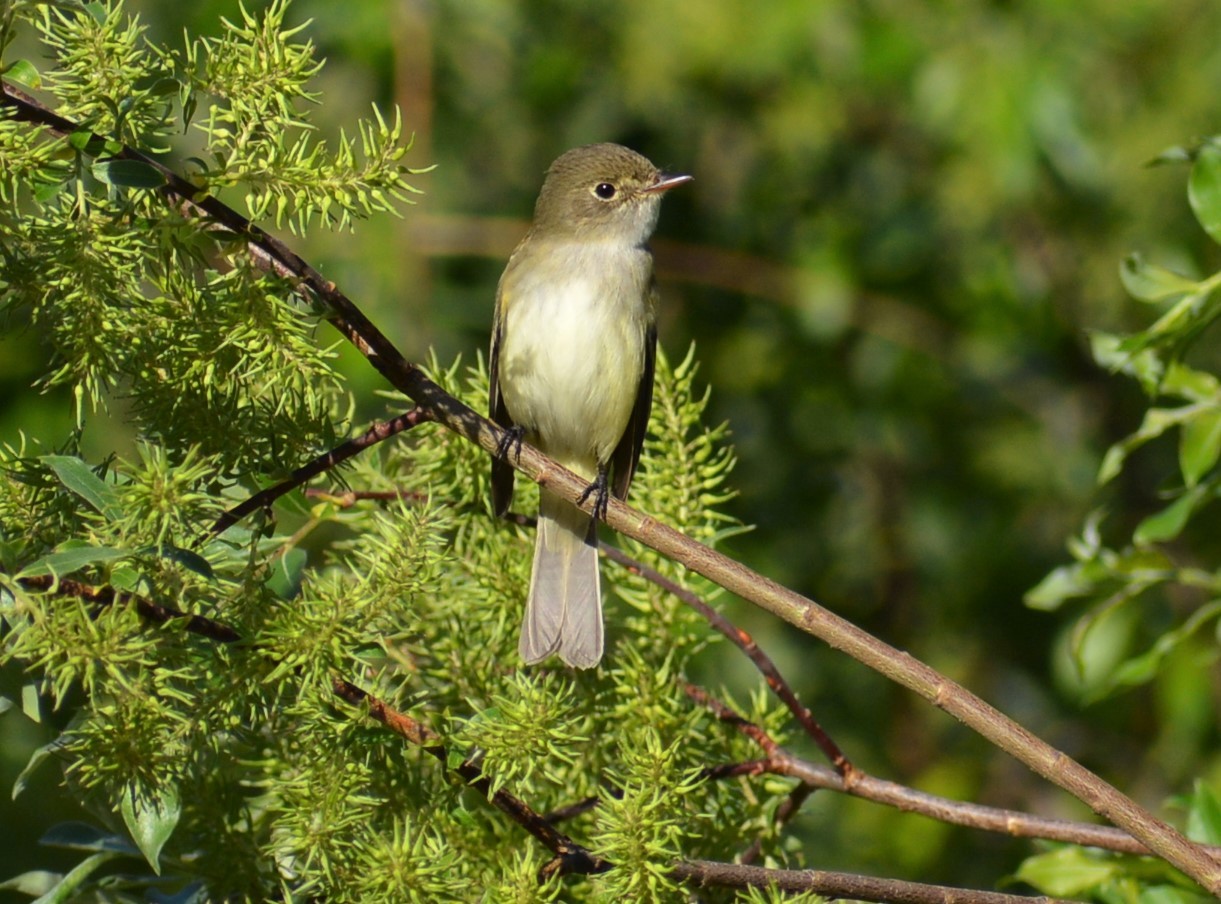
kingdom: Animalia
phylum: Chordata
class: Aves
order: Passeriformes
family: Tyrannidae
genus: Empidonax
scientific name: Empidonax alnorum
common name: Alder flycatcher
